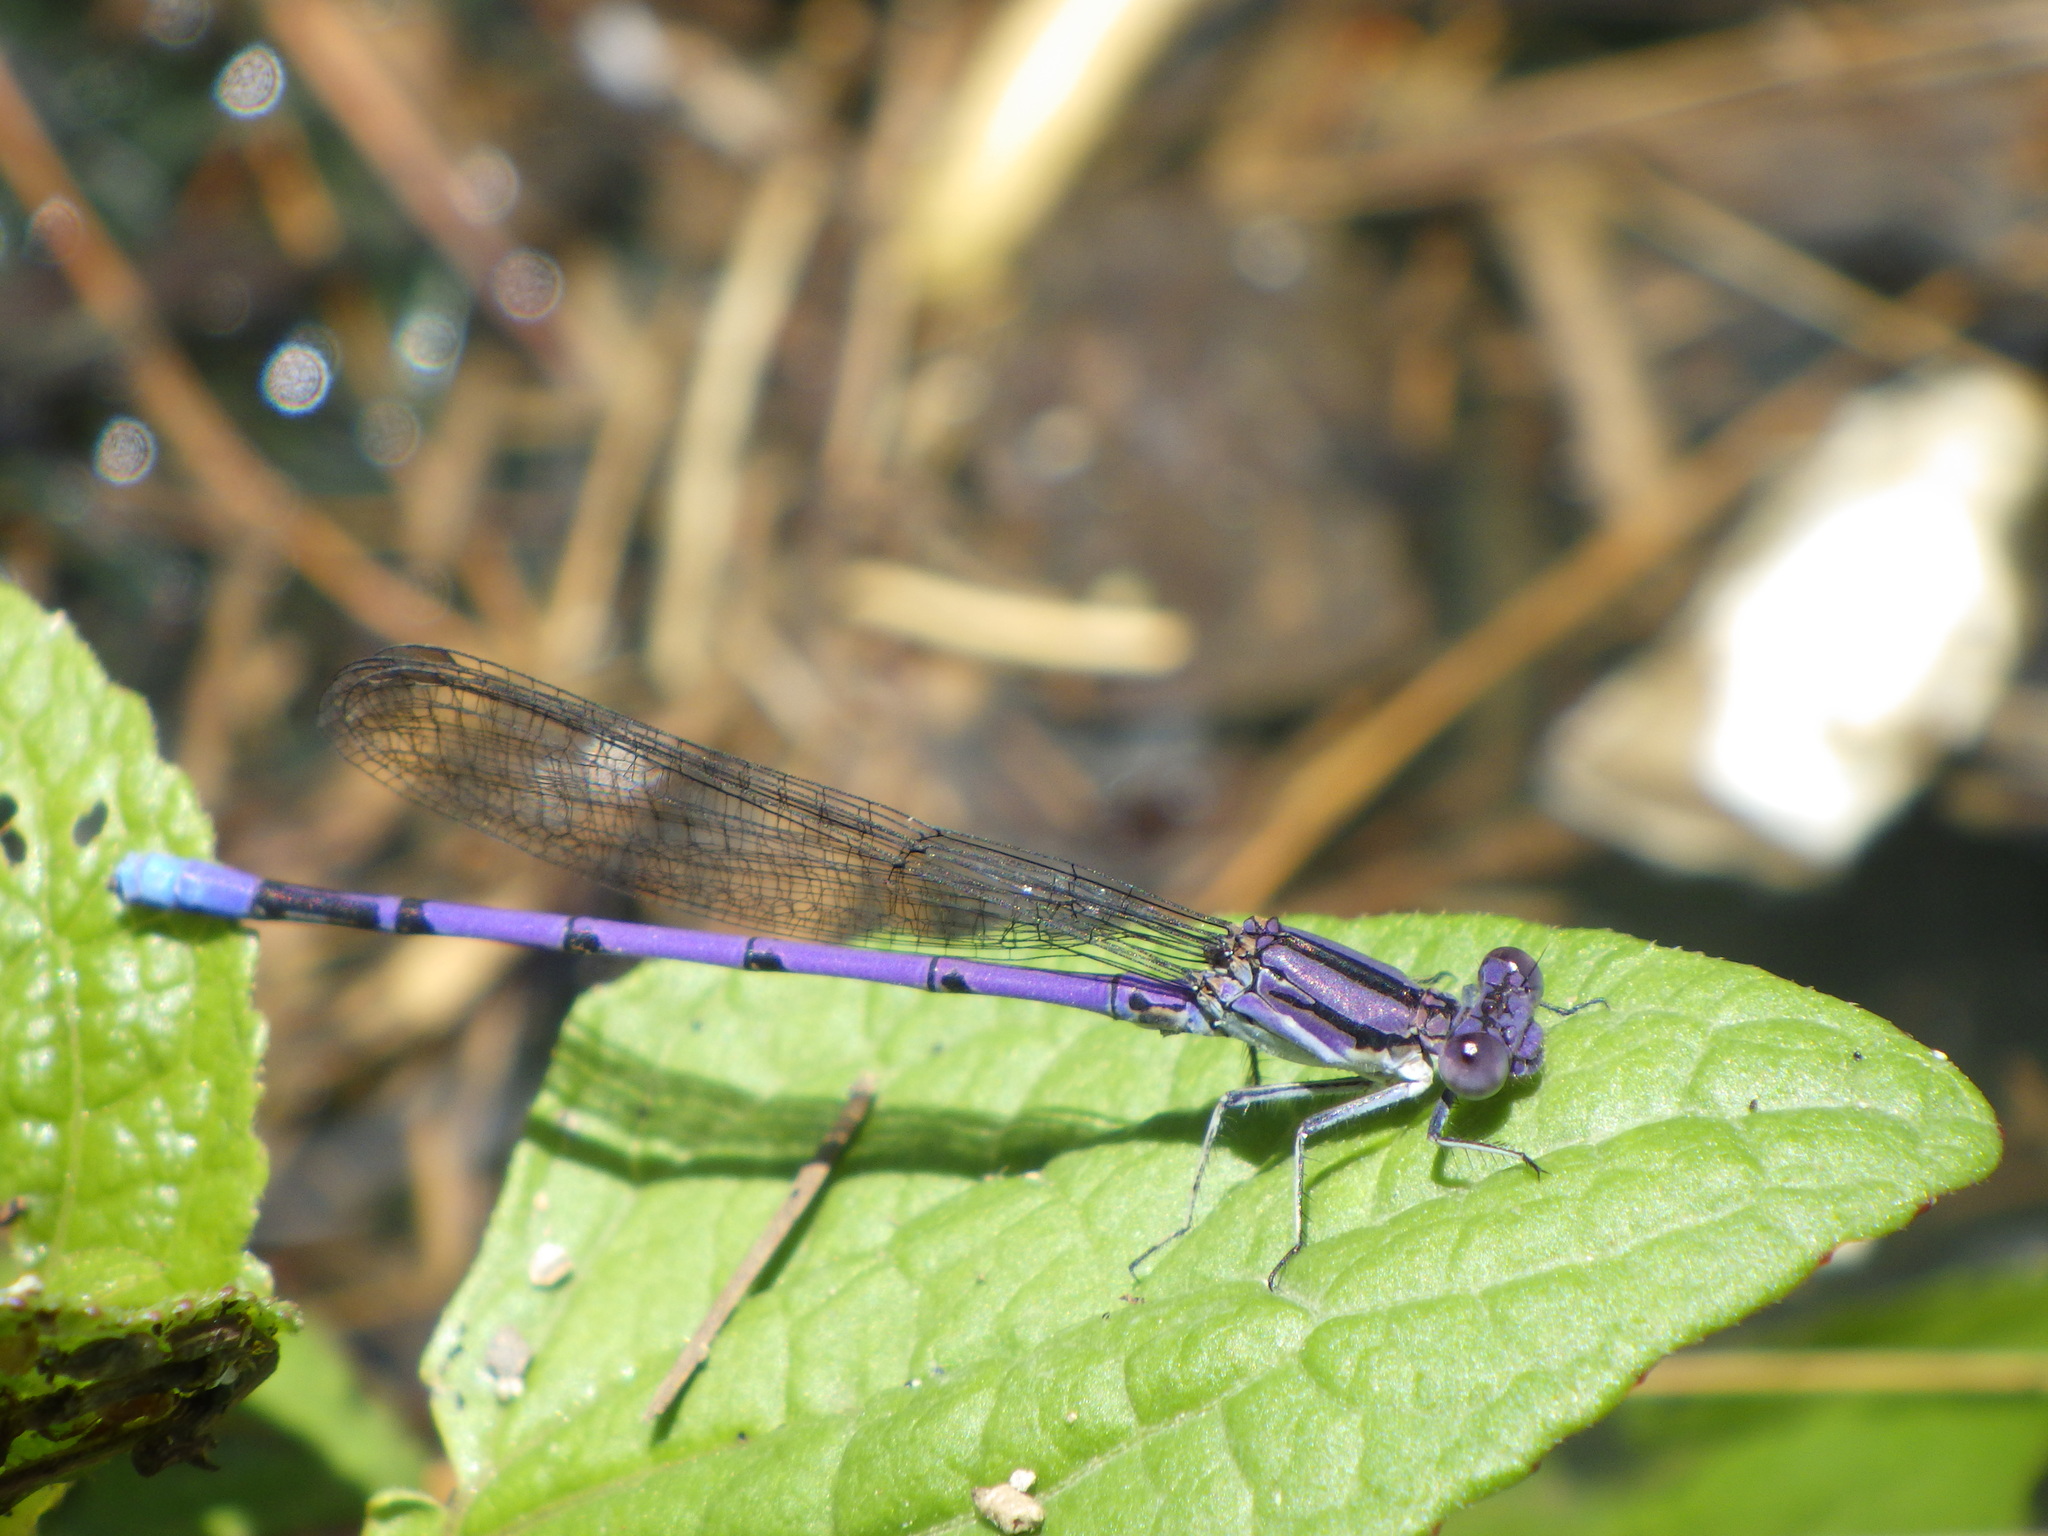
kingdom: Animalia
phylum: Arthropoda
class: Insecta
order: Odonata
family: Coenagrionidae
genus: Argia
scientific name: Argia fumipennis
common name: Variable dancer
